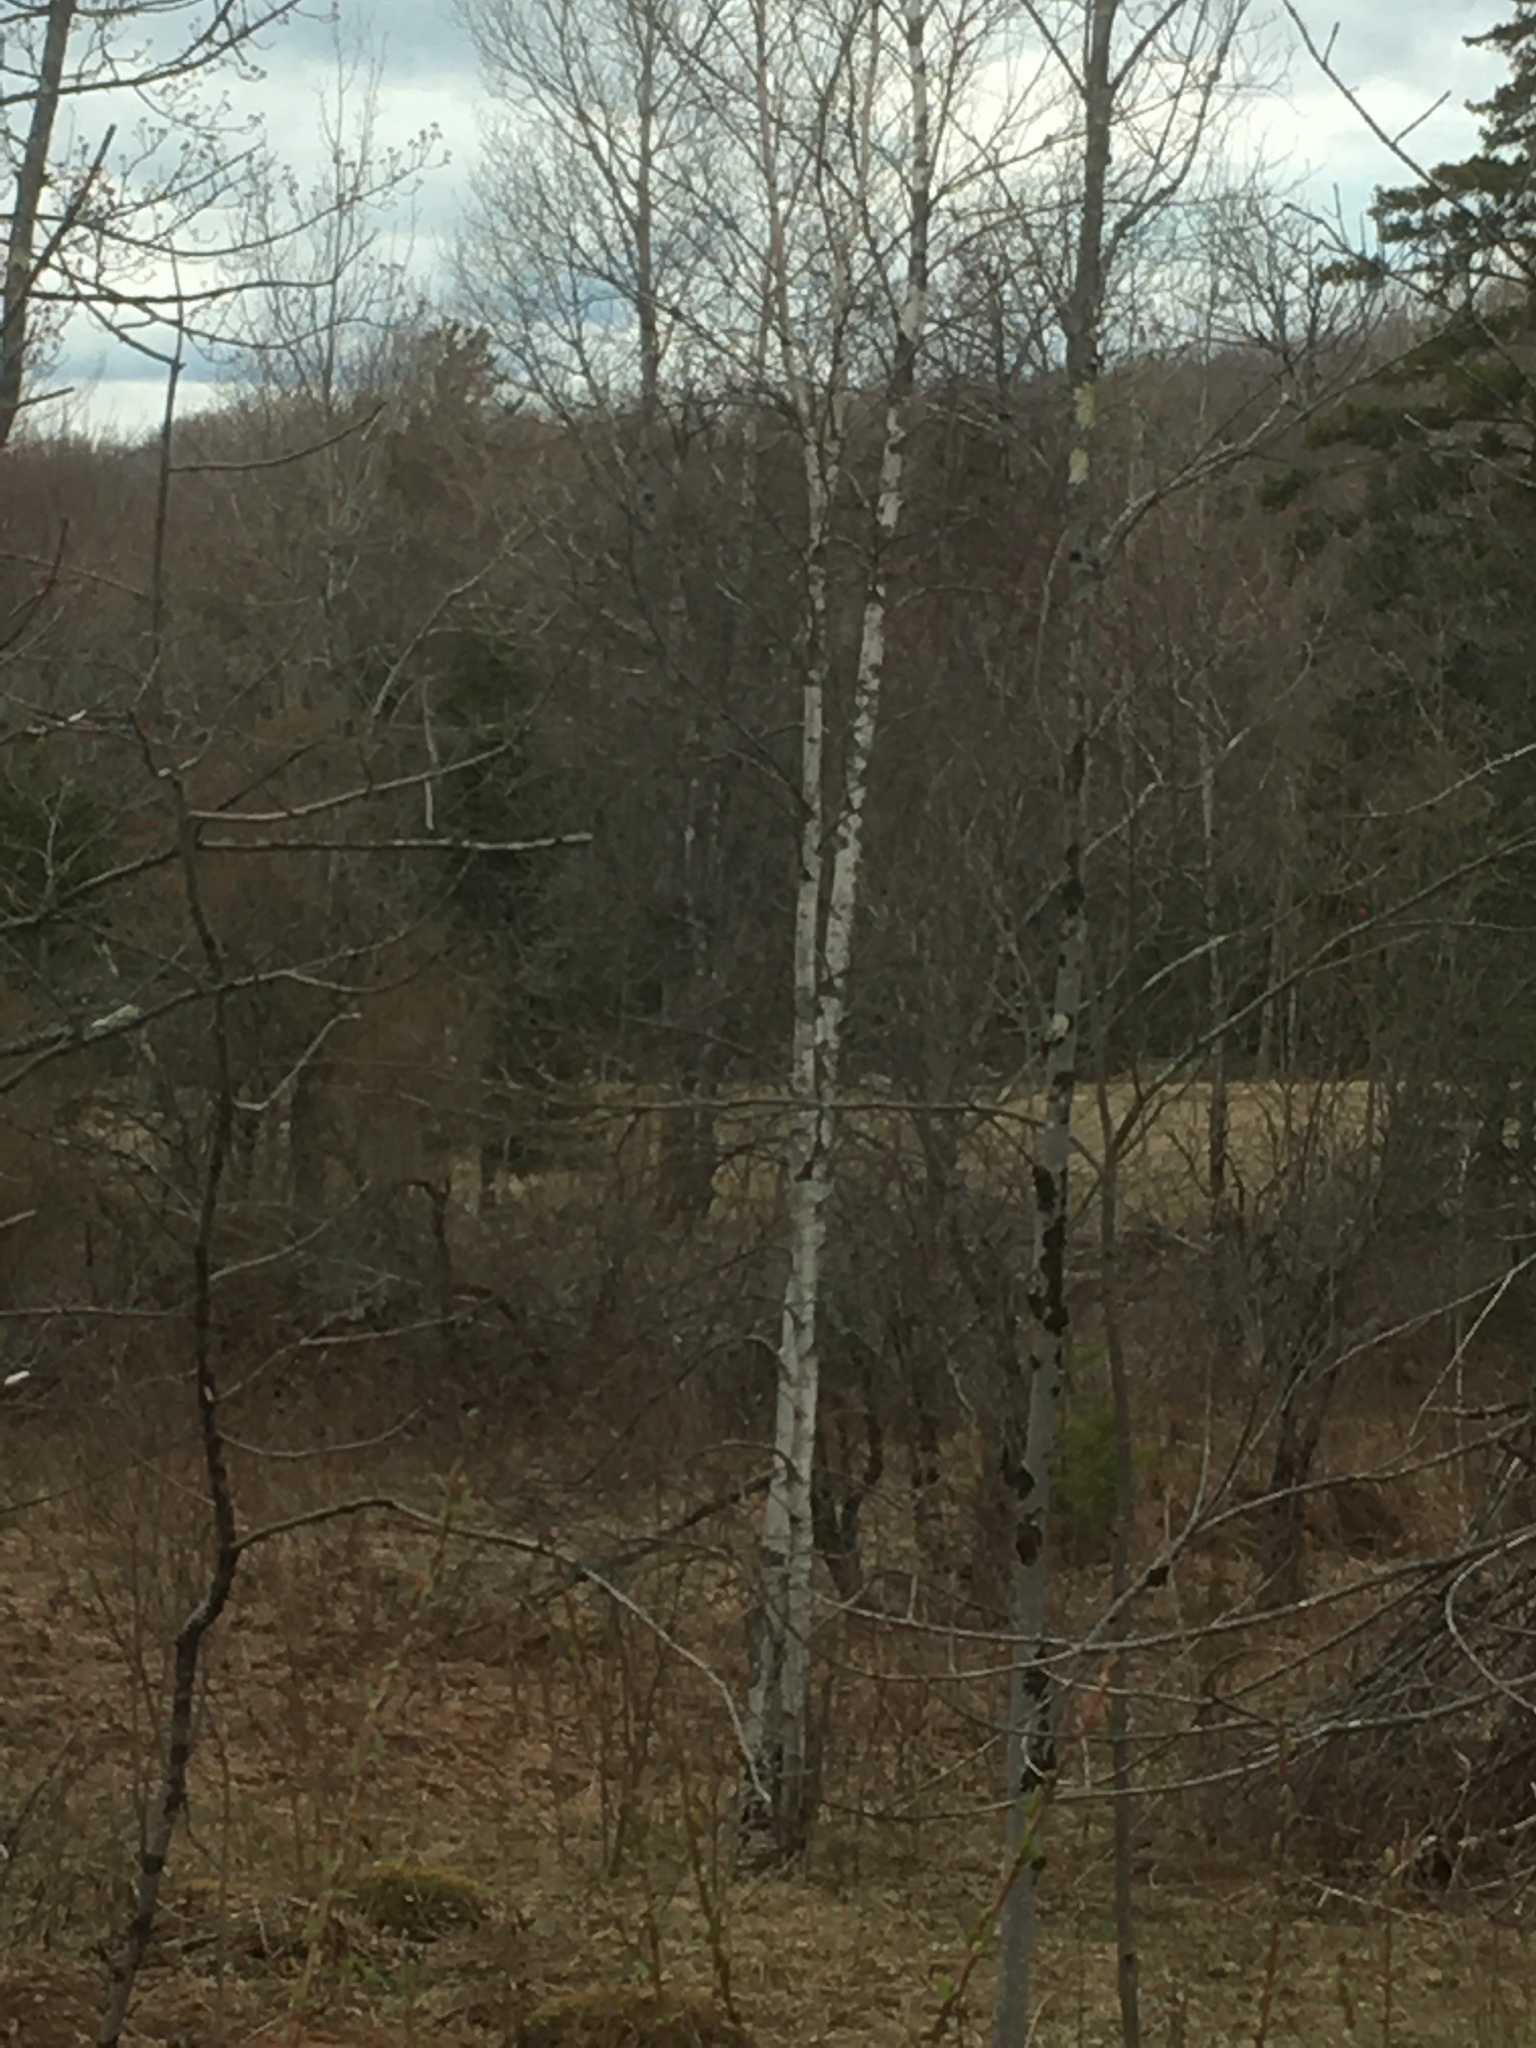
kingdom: Plantae
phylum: Tracheophyta
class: Magnoliopsida
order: Fagales
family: Betulaceae
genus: Betula
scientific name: Betula populifolia
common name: Fire birch
